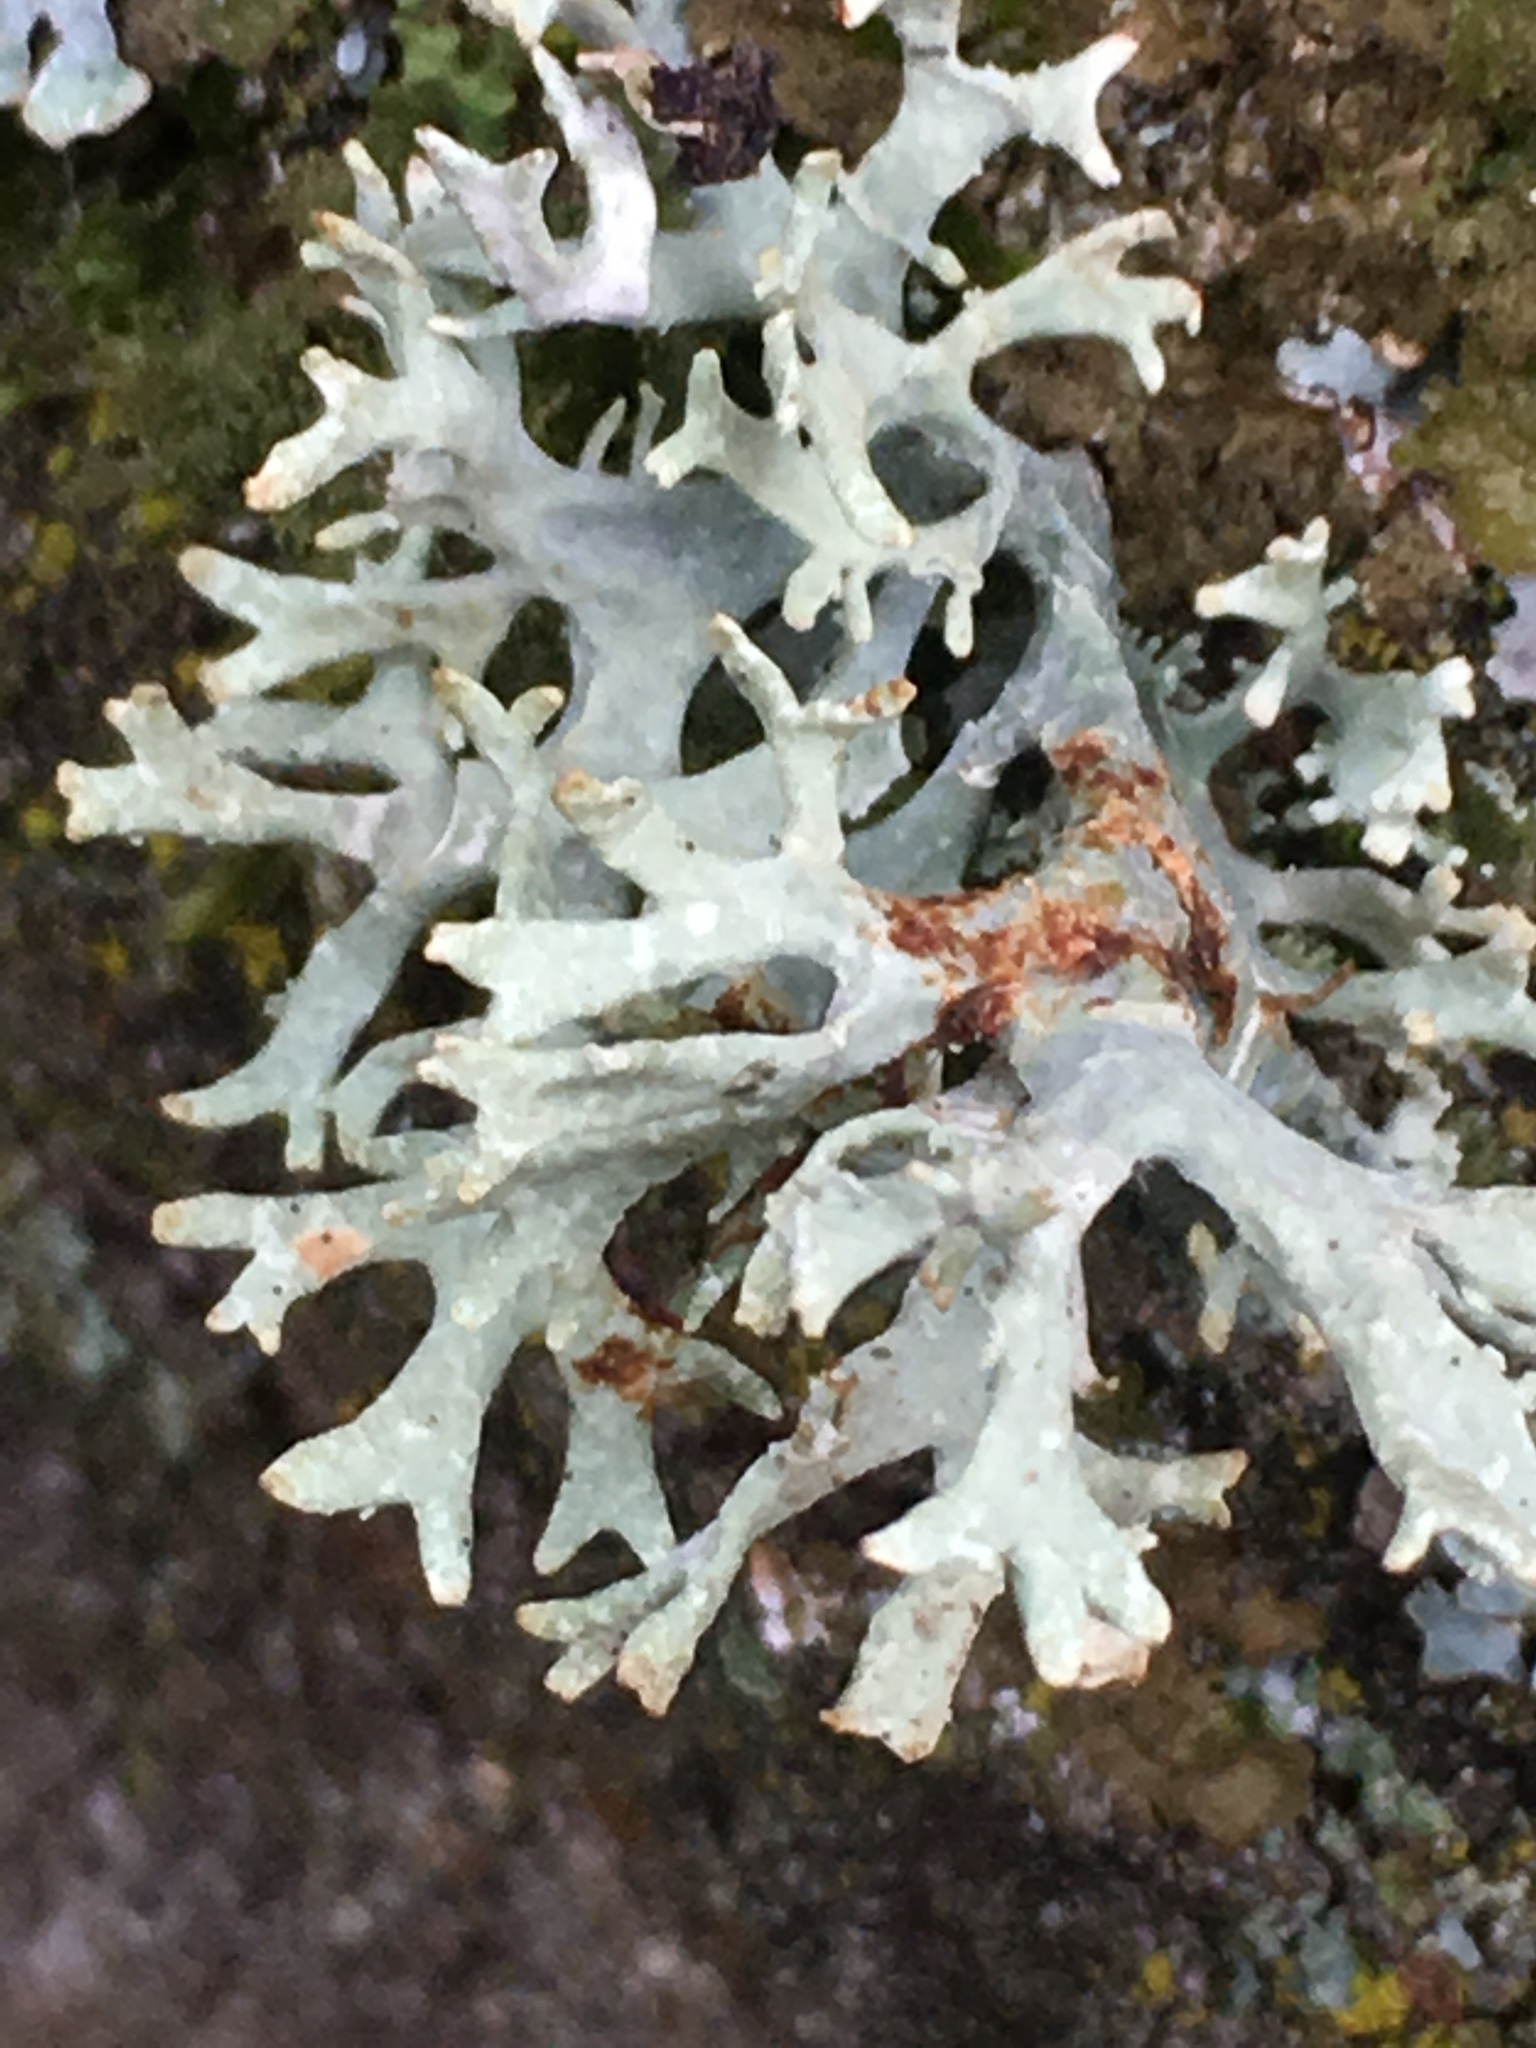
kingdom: Fungi
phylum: Ascomycota
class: Lecanoromycetes
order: Lecanorales
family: Parmeliaceae
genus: Evernia
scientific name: Evernia prunastri
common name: Oak moss
